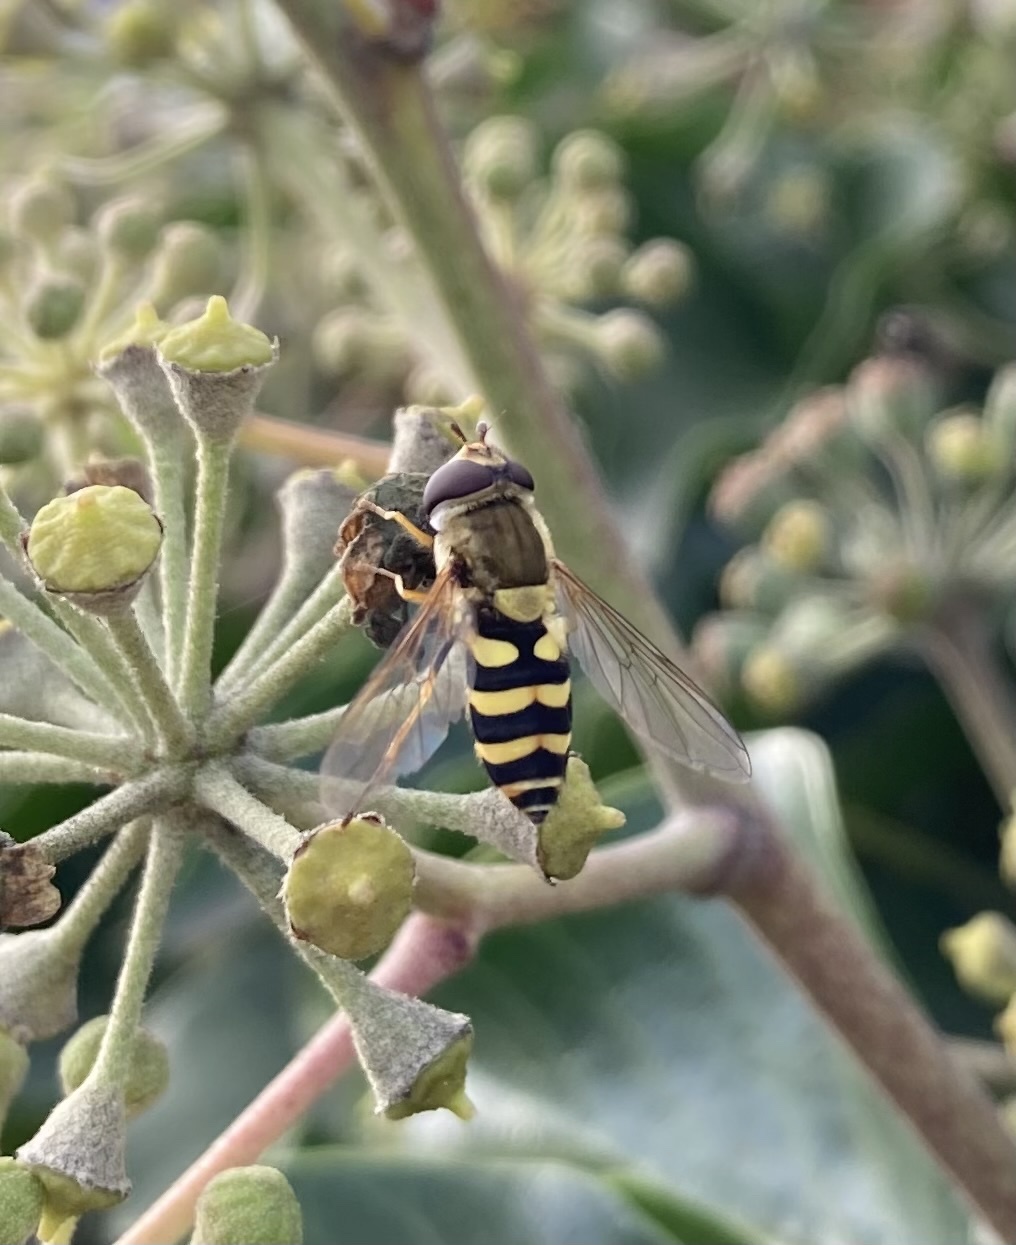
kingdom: Animalia
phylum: Arthropoda
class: Insecta
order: Diptera
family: Syrphidae
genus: Syrphus
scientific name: Syrphus
